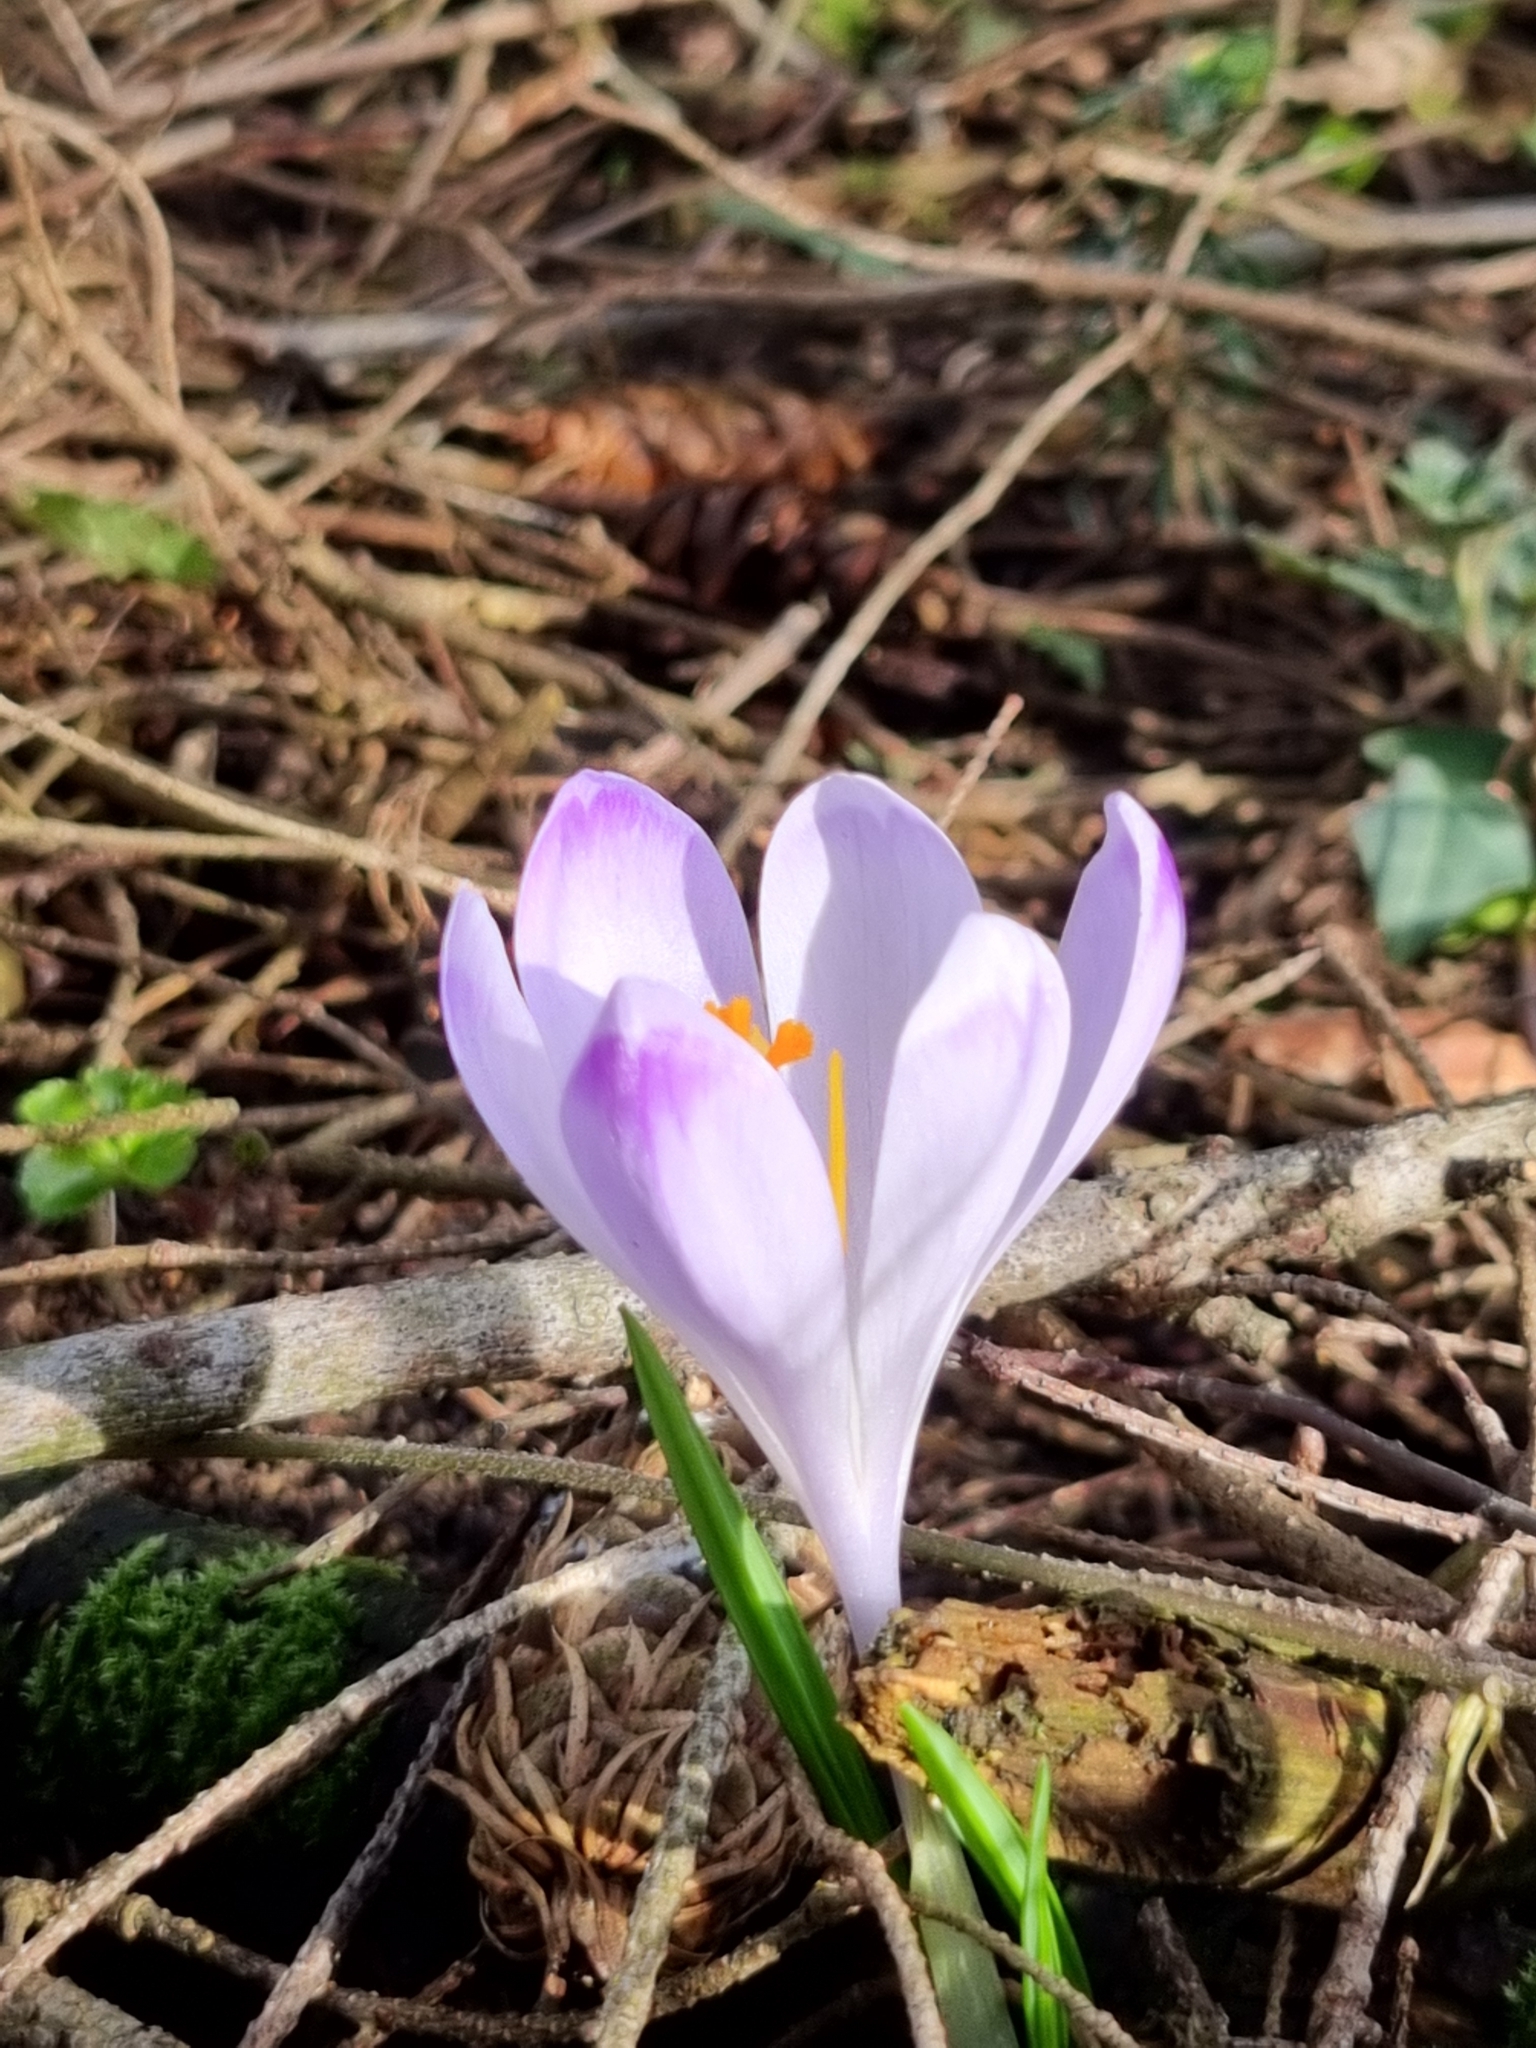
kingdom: Plantae
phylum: Tracheophyta
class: Liliopsida
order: Asparagales
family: Iridaceae
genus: Crocus
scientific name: Crocus heuffelianus
